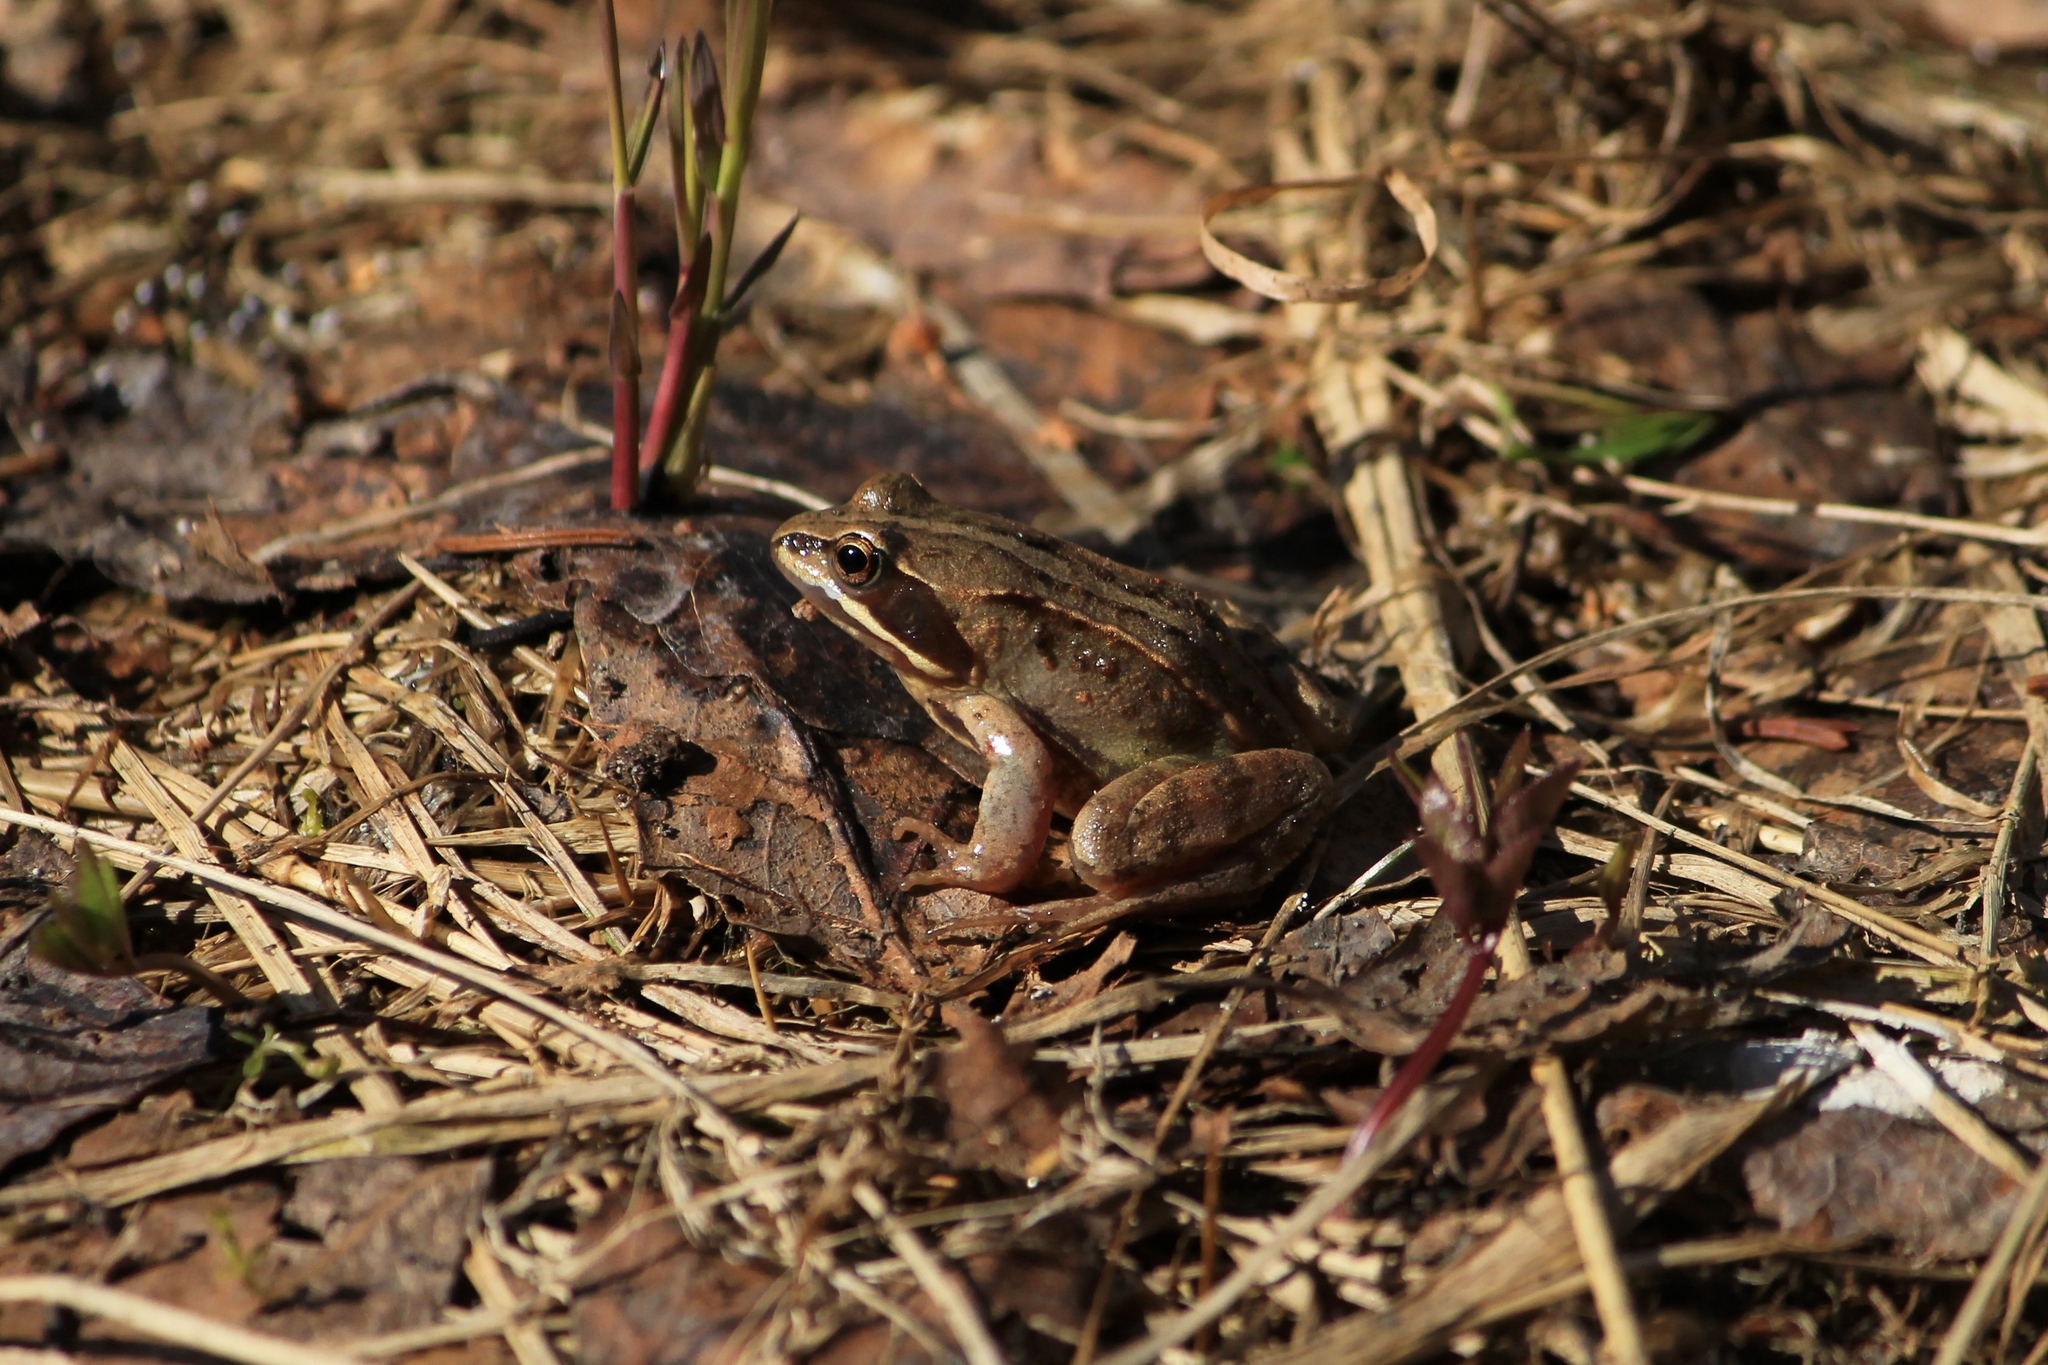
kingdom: Animalia
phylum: Chordata
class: Amphibia
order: Anura
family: Ranidae
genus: Rana
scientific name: Rana arvalis
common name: Moor frog
